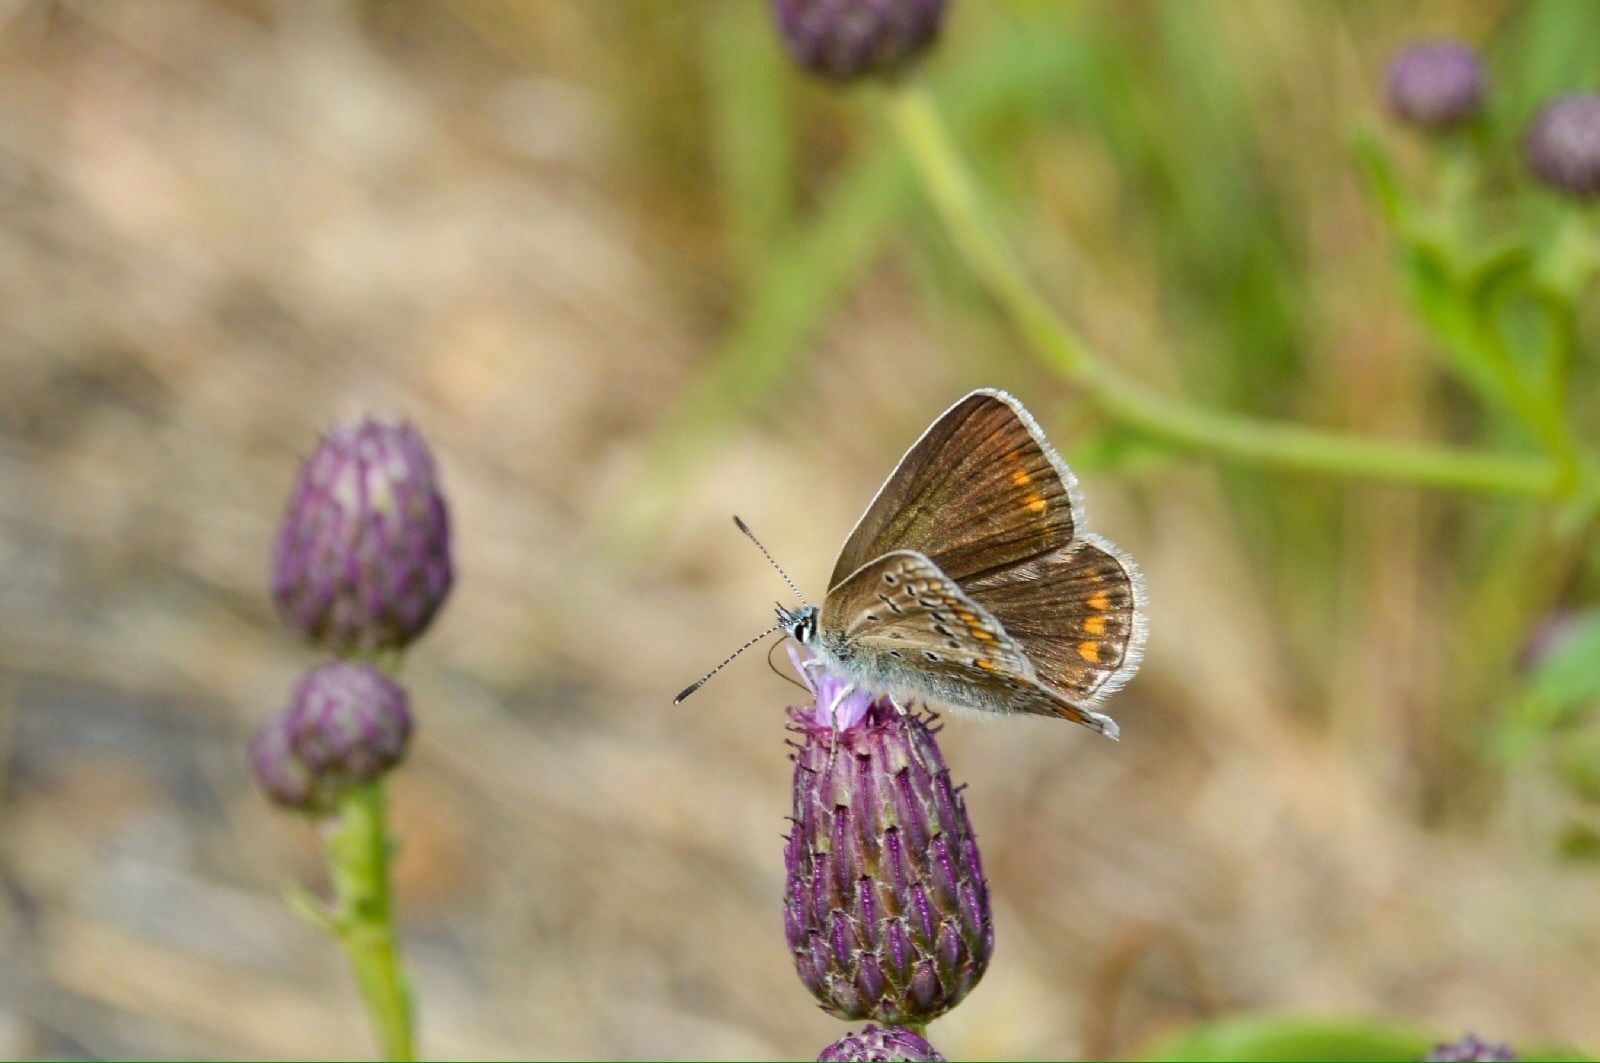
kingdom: Animalia
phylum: Arthropoda
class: Insecta
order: Lepidoptera
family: Lycaenidae
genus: Polyommatus
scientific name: Polyommatus icarus
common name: Common blue
